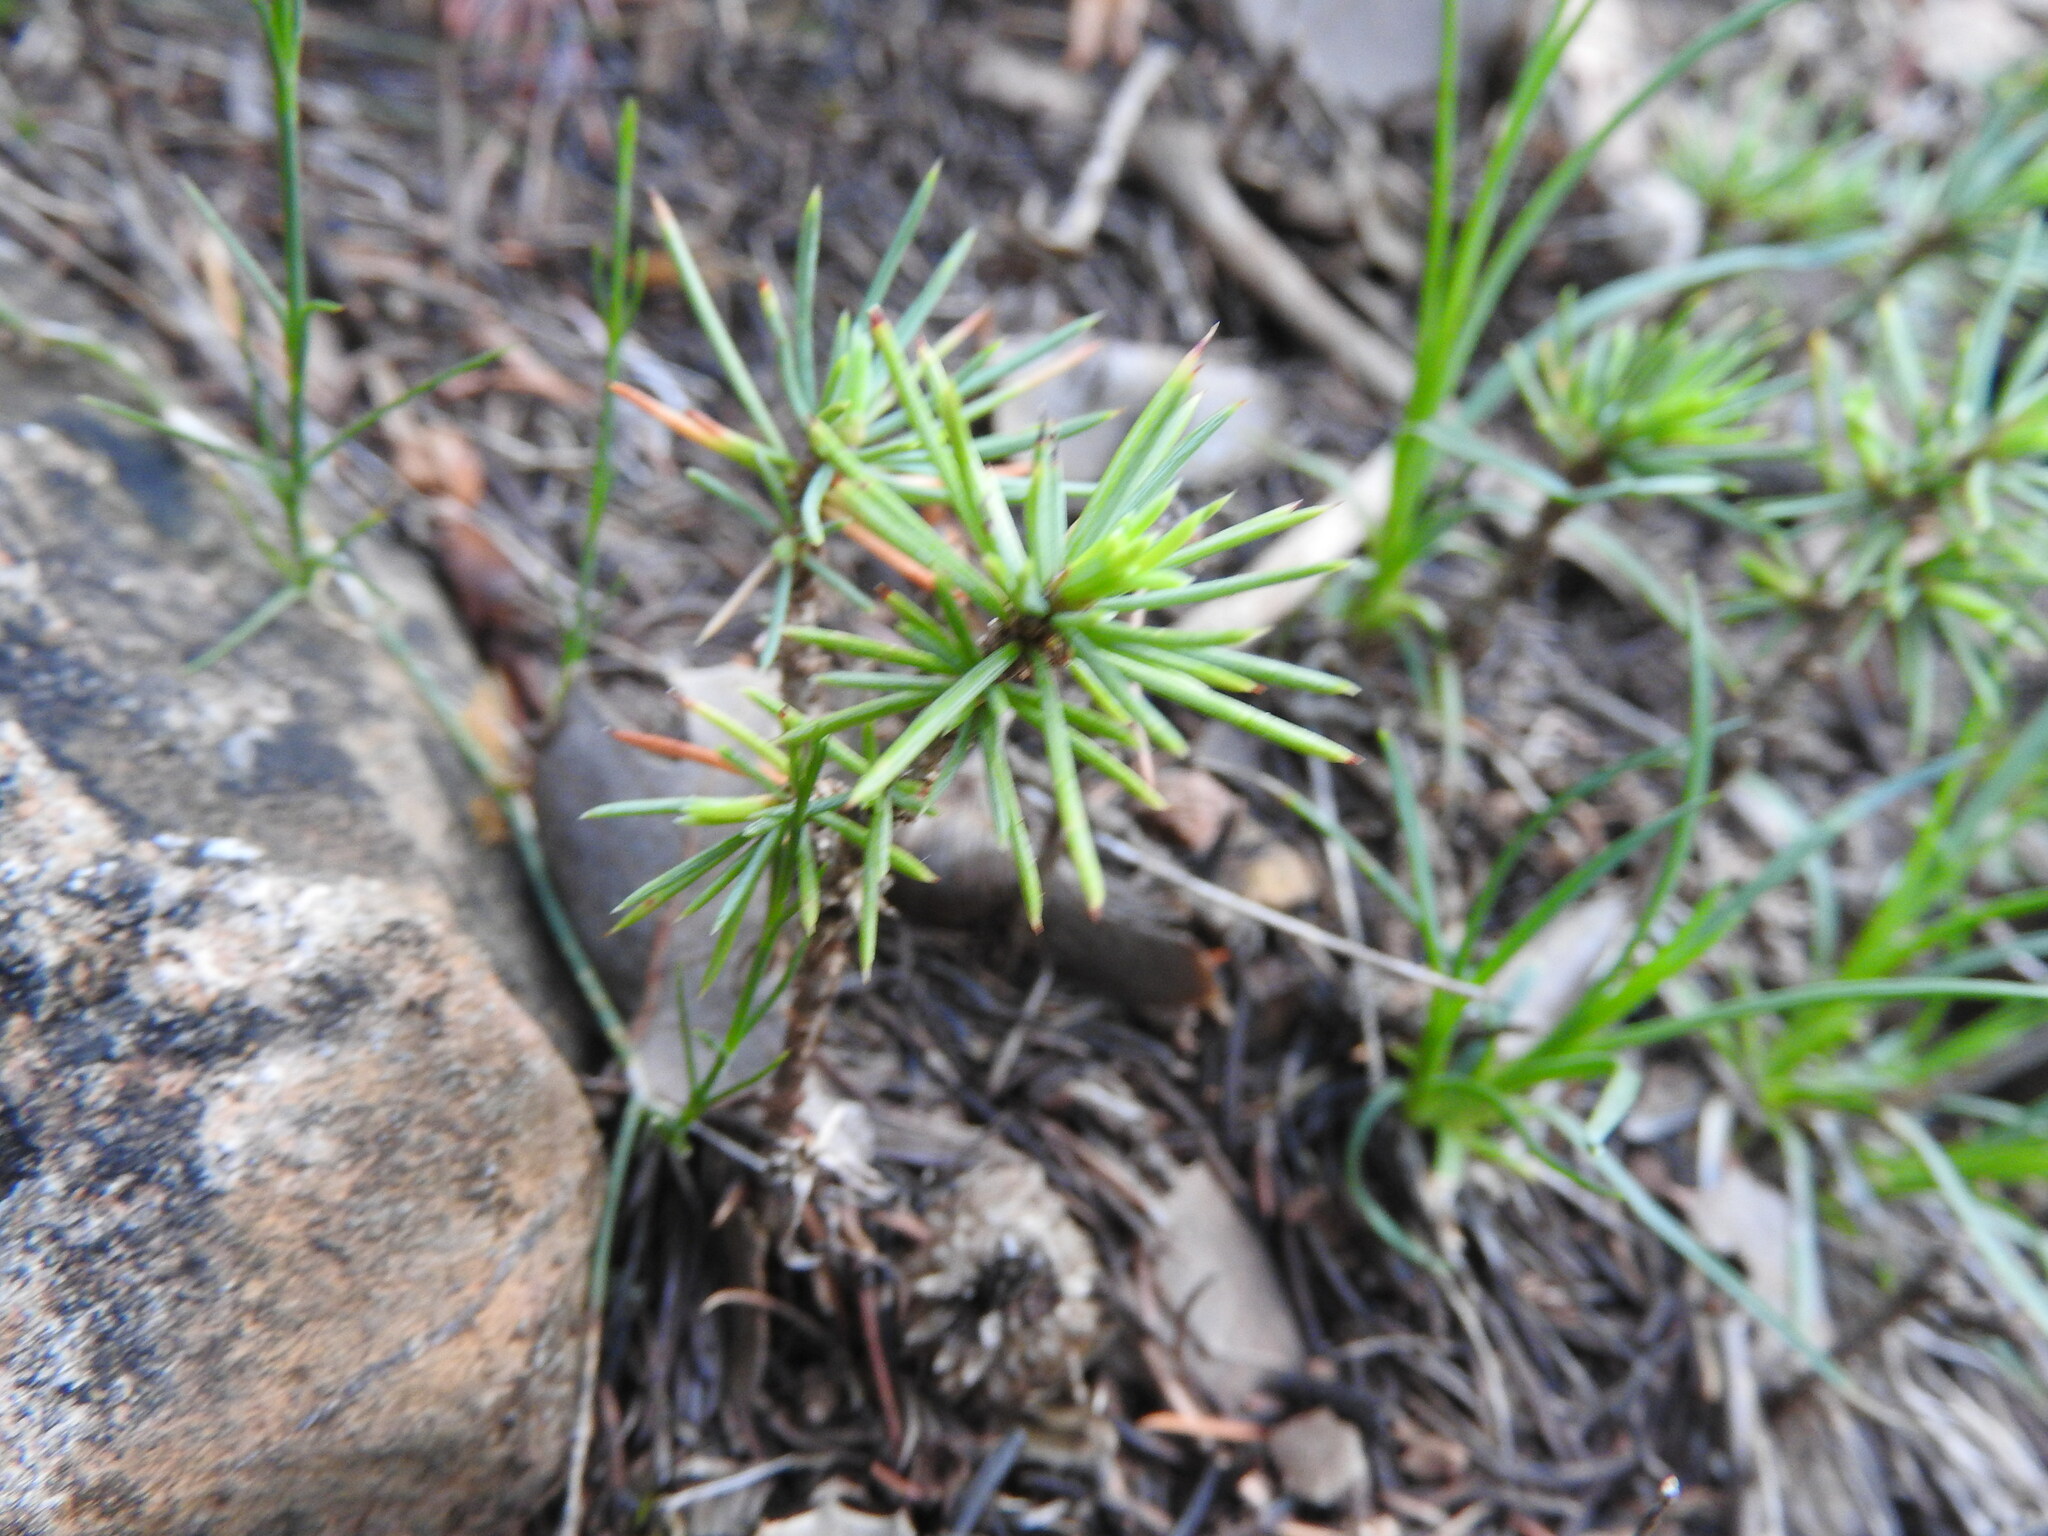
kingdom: Plantae
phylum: Tracheophyta
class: Pinopsida
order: Pinales
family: Pinaceae
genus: Cedrus
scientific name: Cedrus atlantica
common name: Atlas cedar
